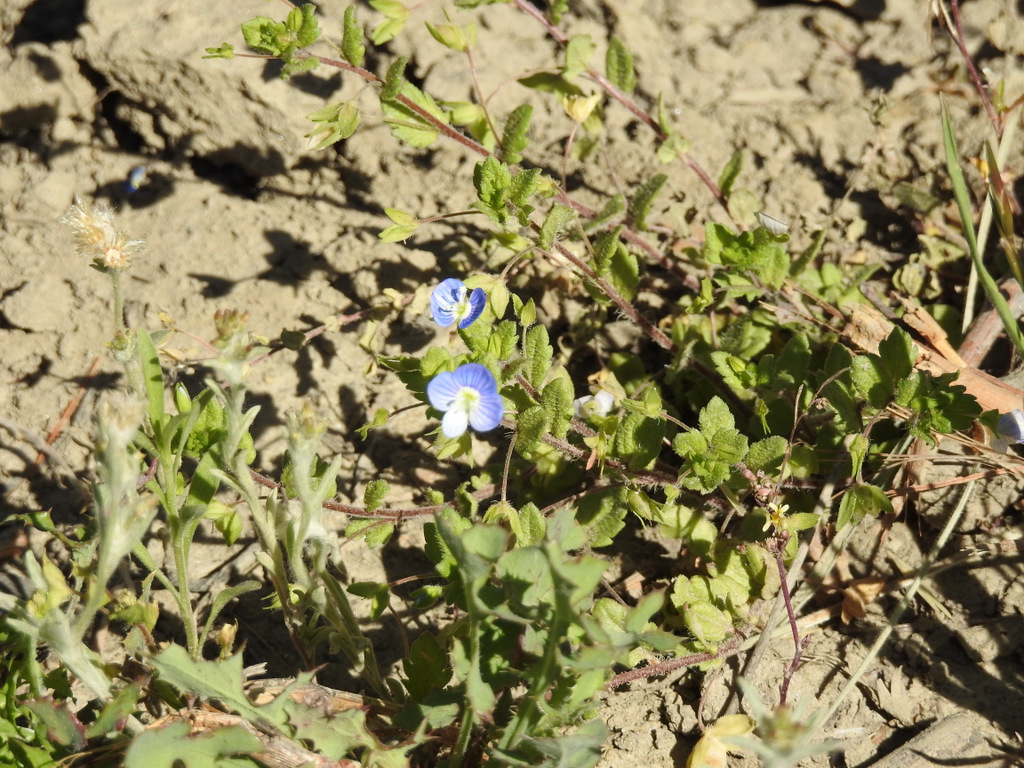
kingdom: Plantae
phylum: Tracheophyta
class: Magnoliopsida
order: Lamiales
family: Plantaginaceae
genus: Veronica
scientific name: Veronica persica
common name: Common field-speedwell
